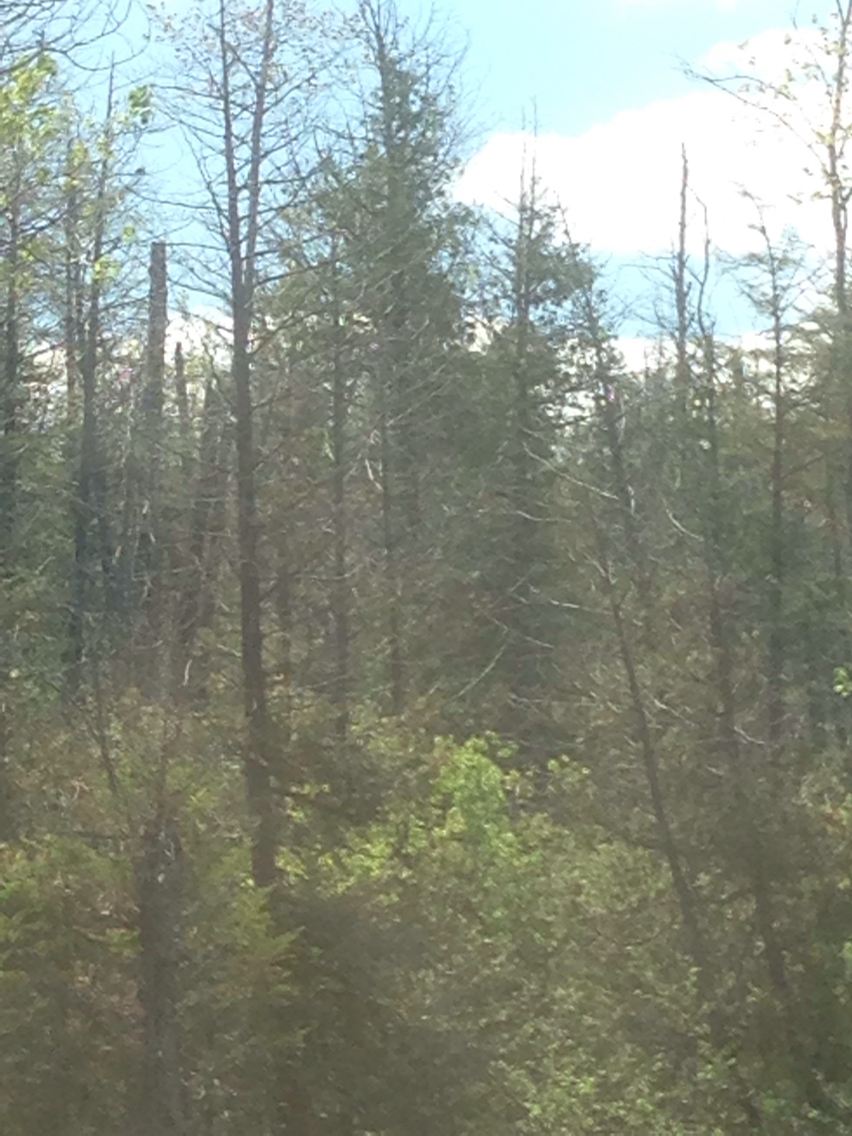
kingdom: Plantae
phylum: Tracheophyta
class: Pinopsida
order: Pinales
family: Cupressaceae
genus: Thuja
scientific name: Thuja occidentalis
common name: Northern white-cedar
